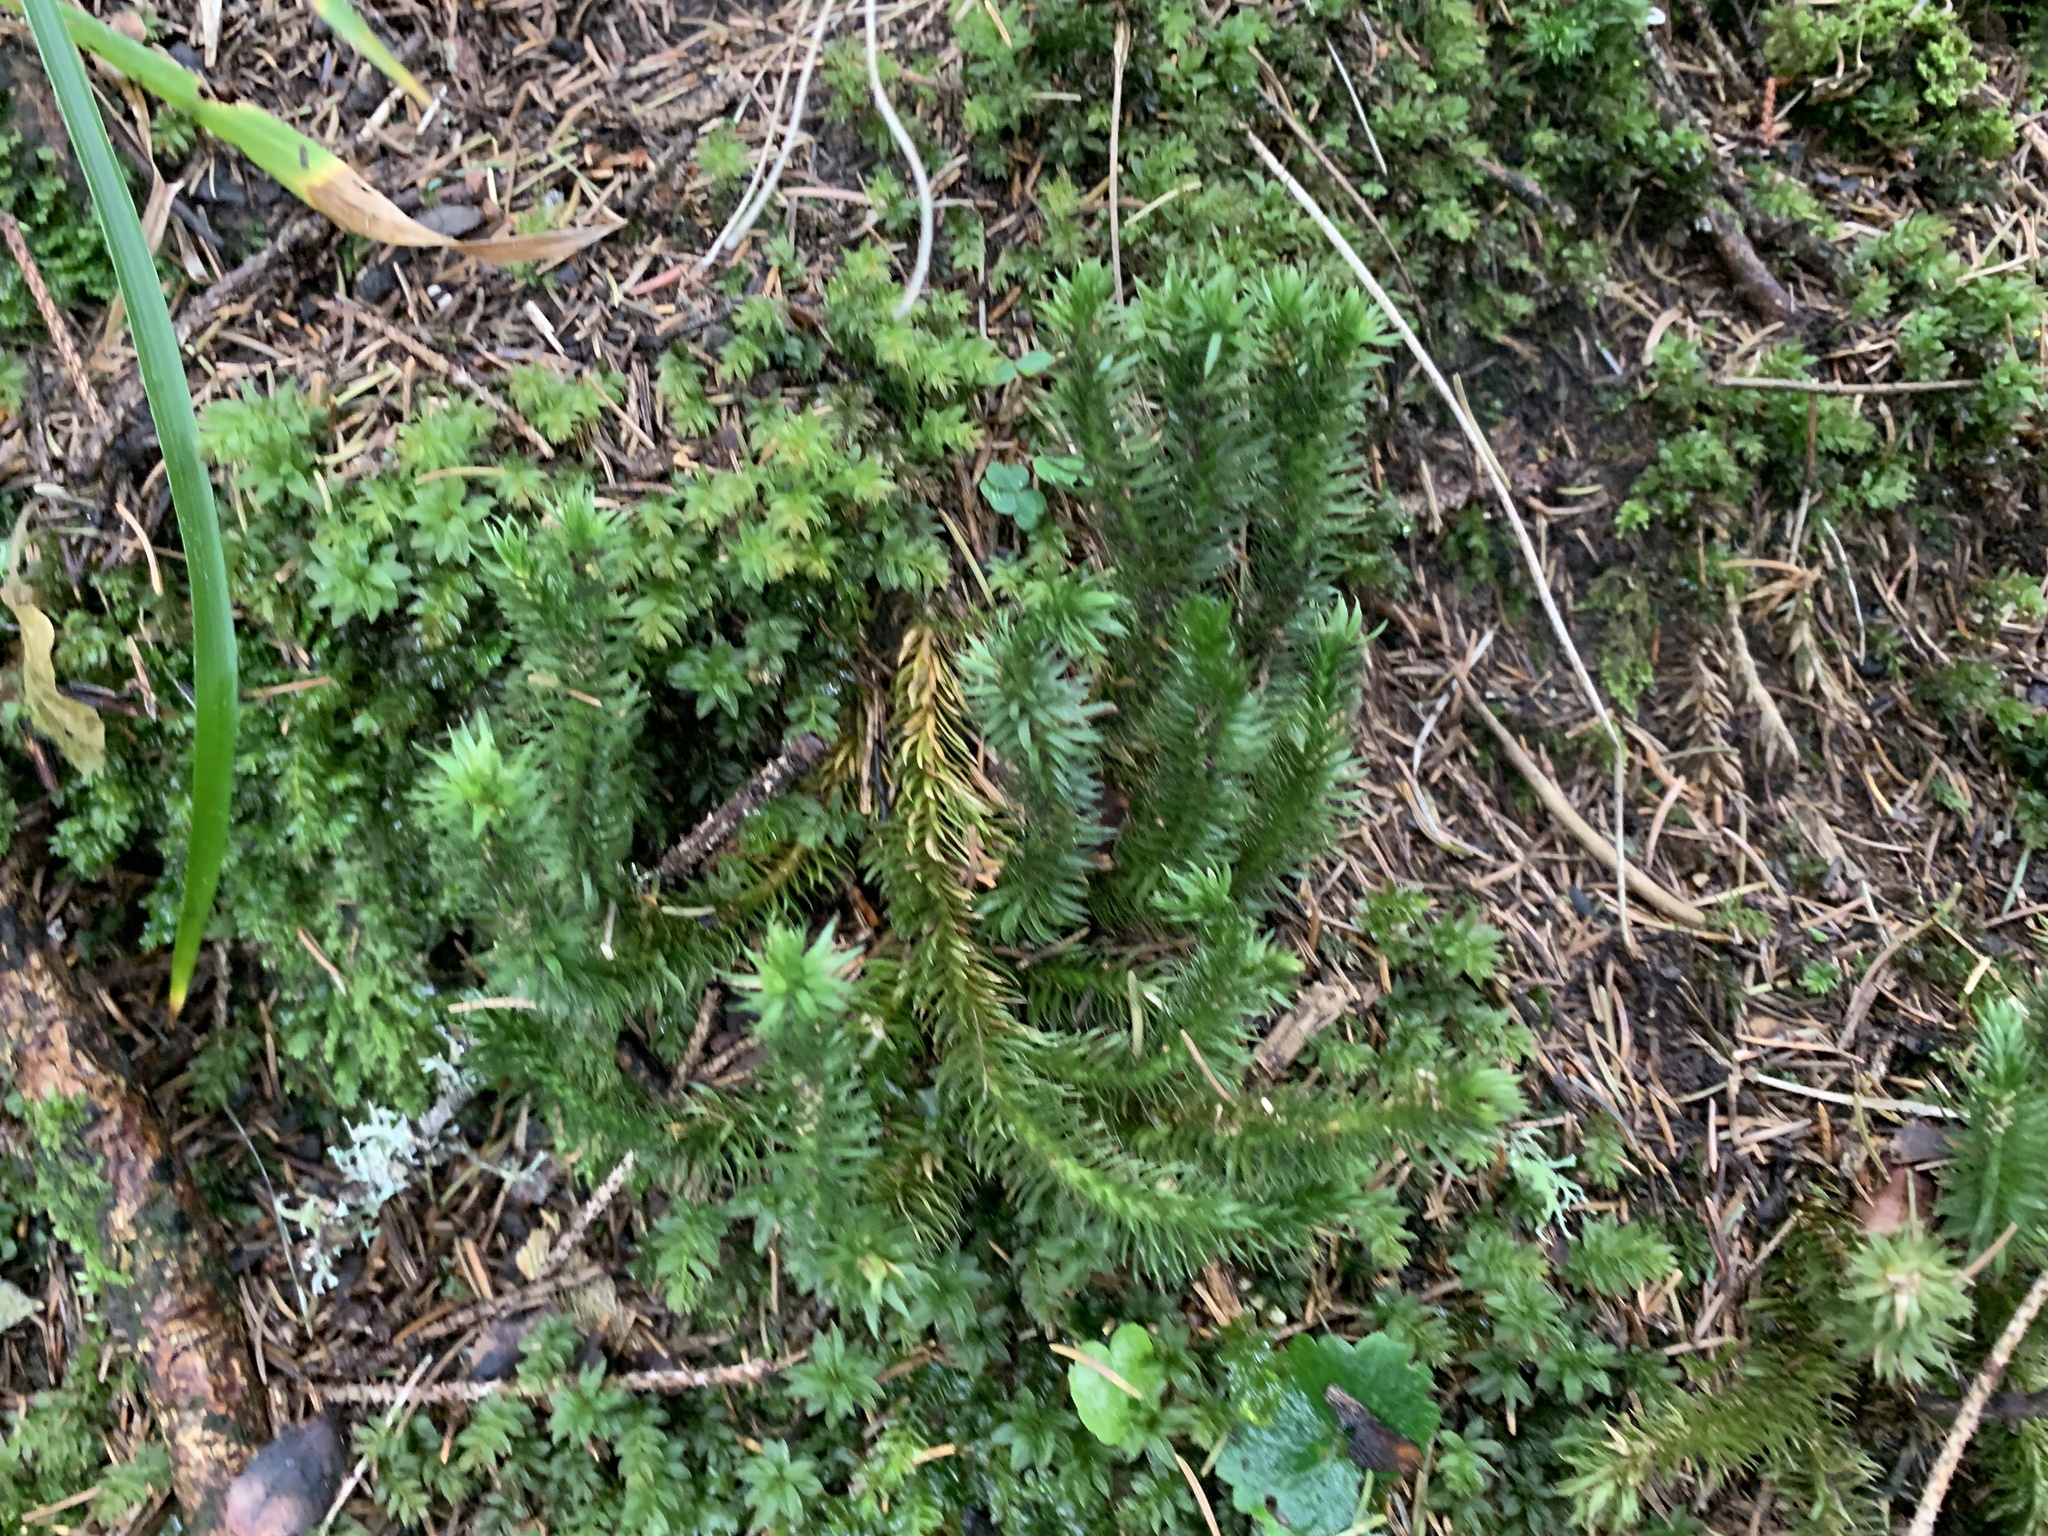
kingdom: Plantae
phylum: Tracheophyta
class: Lycopodiopsida
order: Lycopodiales
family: Lycopodiaceae
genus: Huperzia
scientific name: Huperzia selago
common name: Northern firmoss
